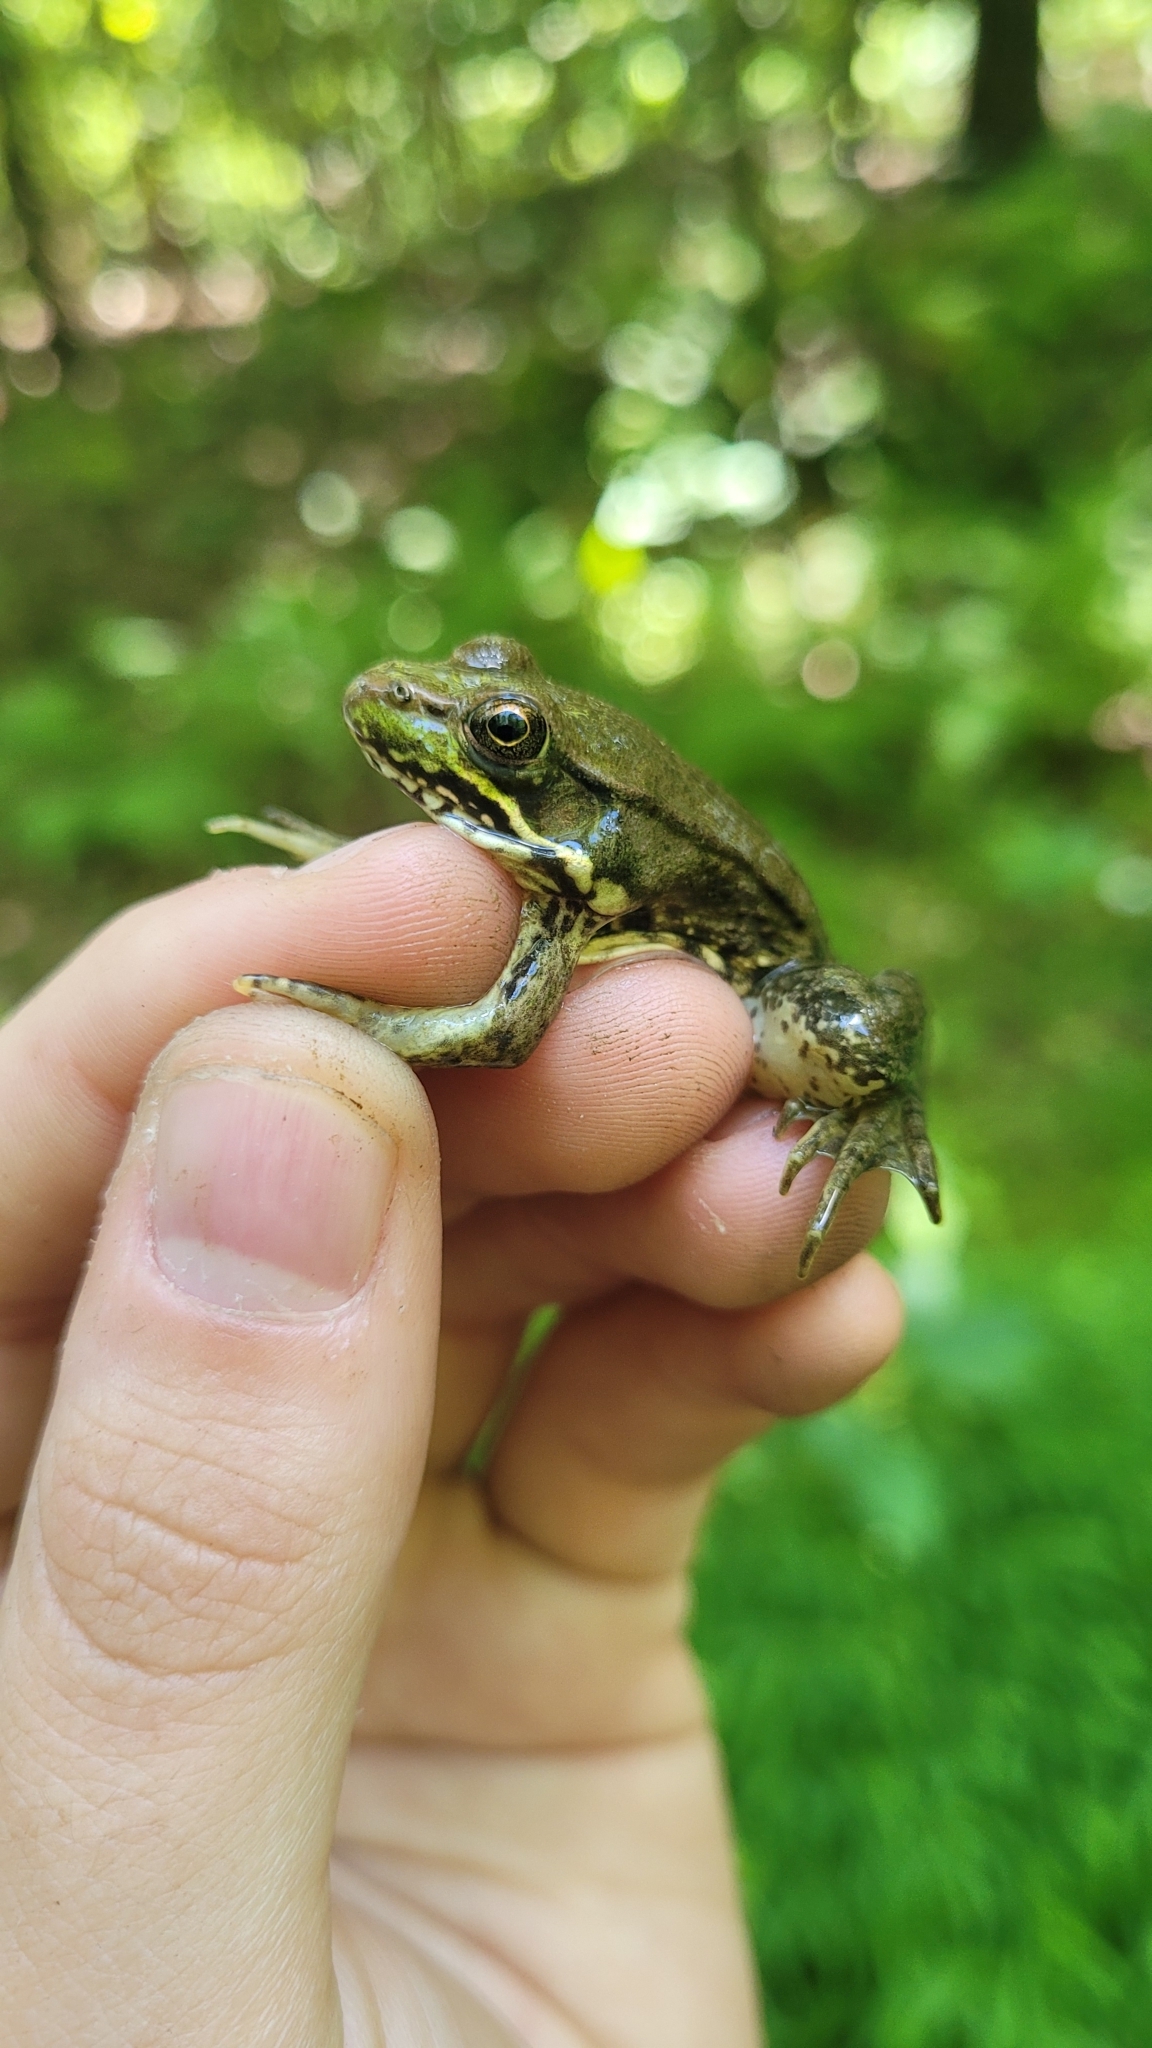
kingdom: Animalia
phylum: Chordata
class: Amphibia
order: Anura
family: Ranidae
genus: Lithobates
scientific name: Lithobates clamitans
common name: Green frog
